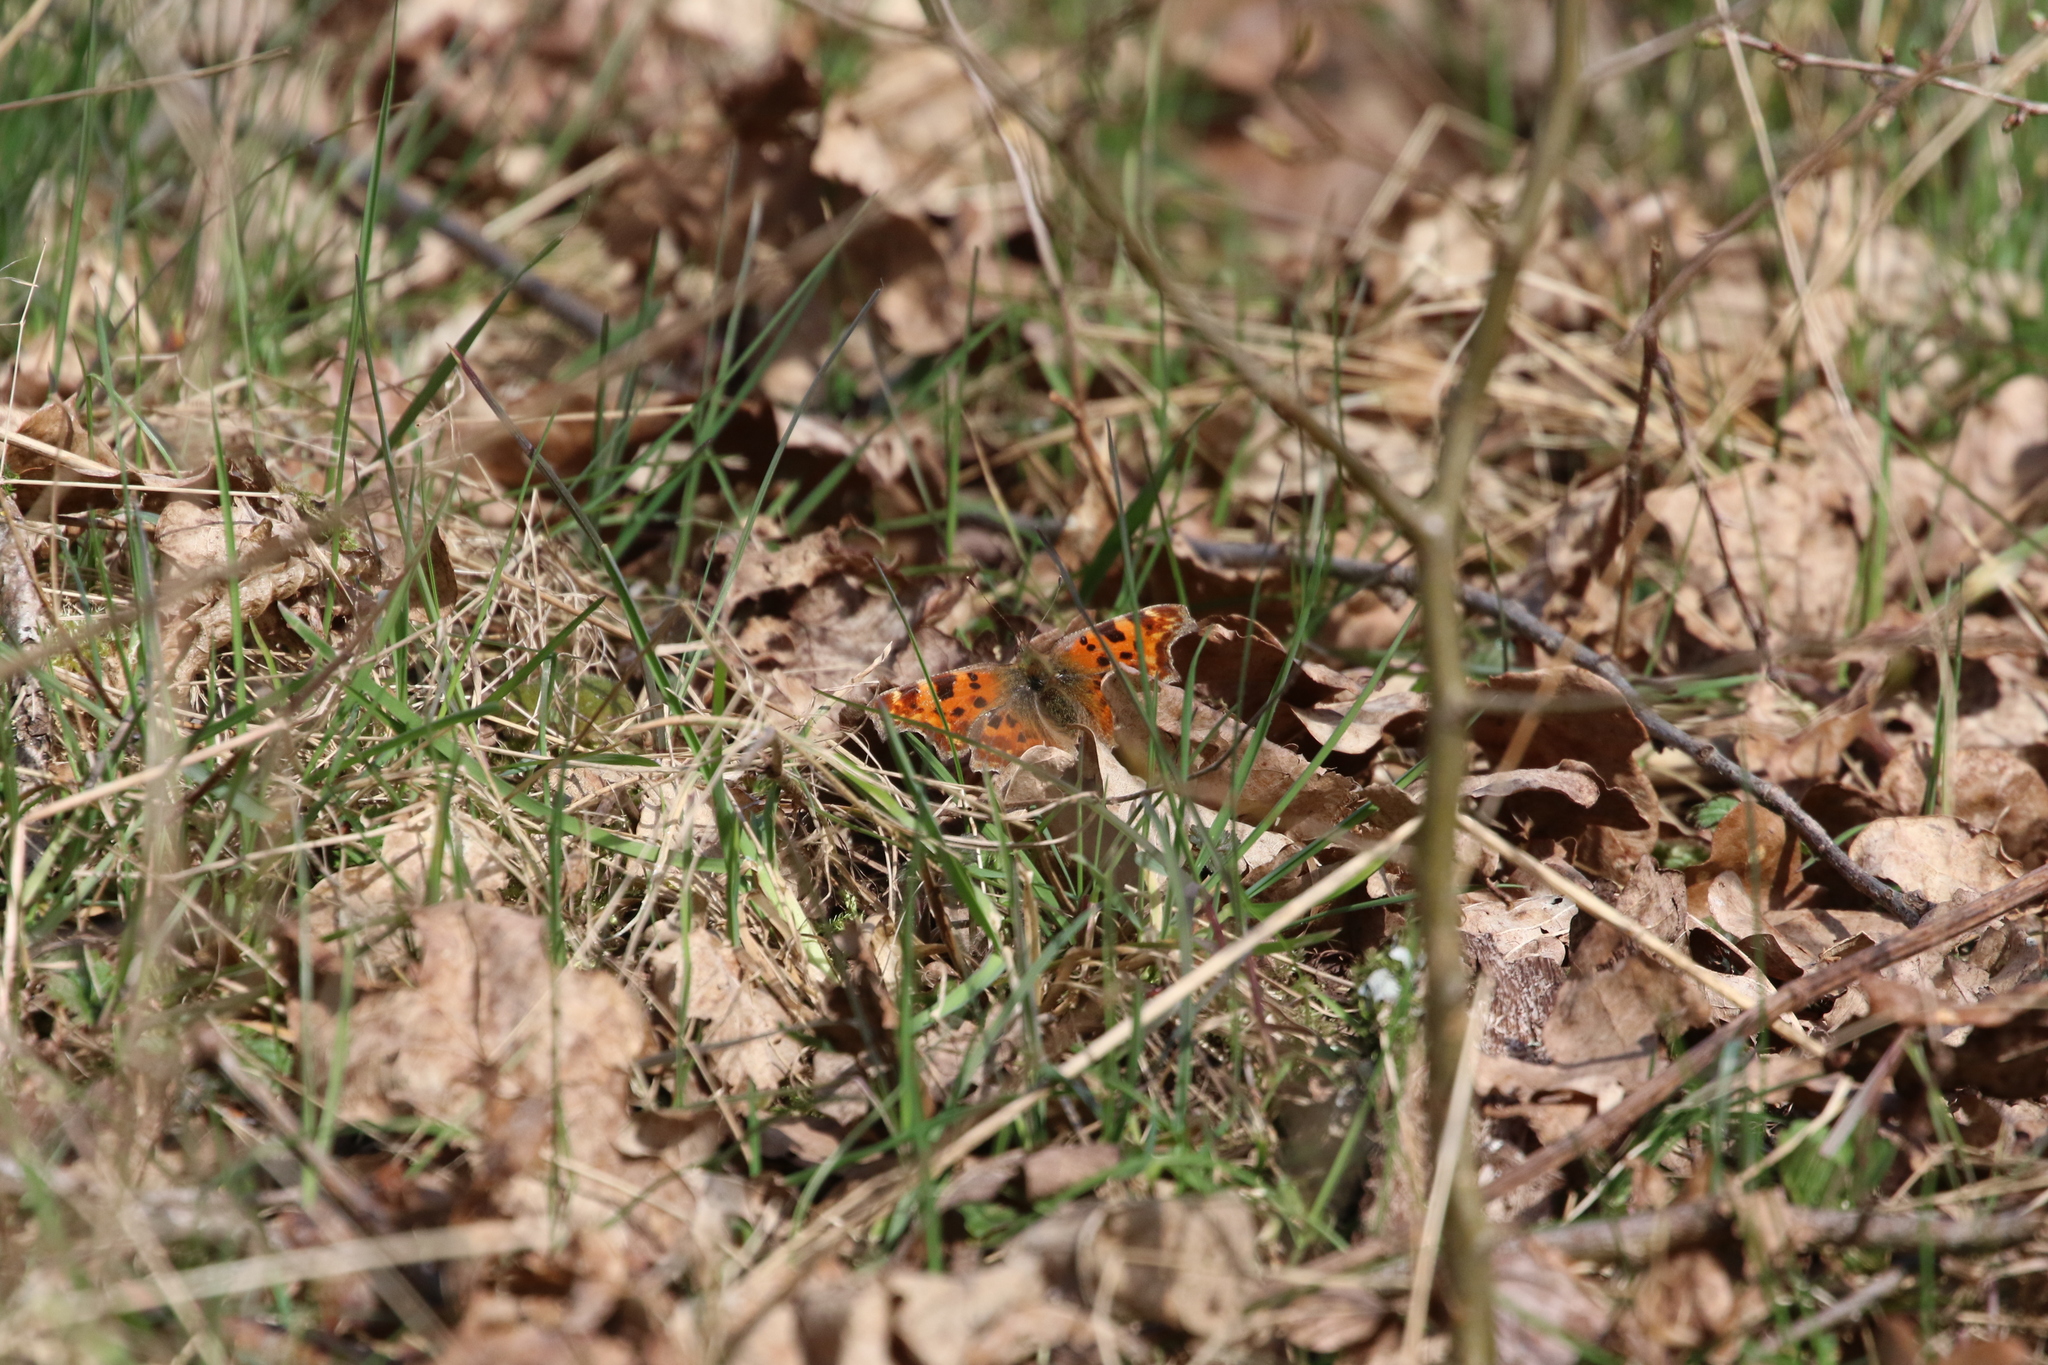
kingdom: Animalia
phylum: Arthropoda
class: Insecta
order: Lepidoptera
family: Nymphalidae
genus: Polygonia
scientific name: Polygonia c-album
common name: Comma
